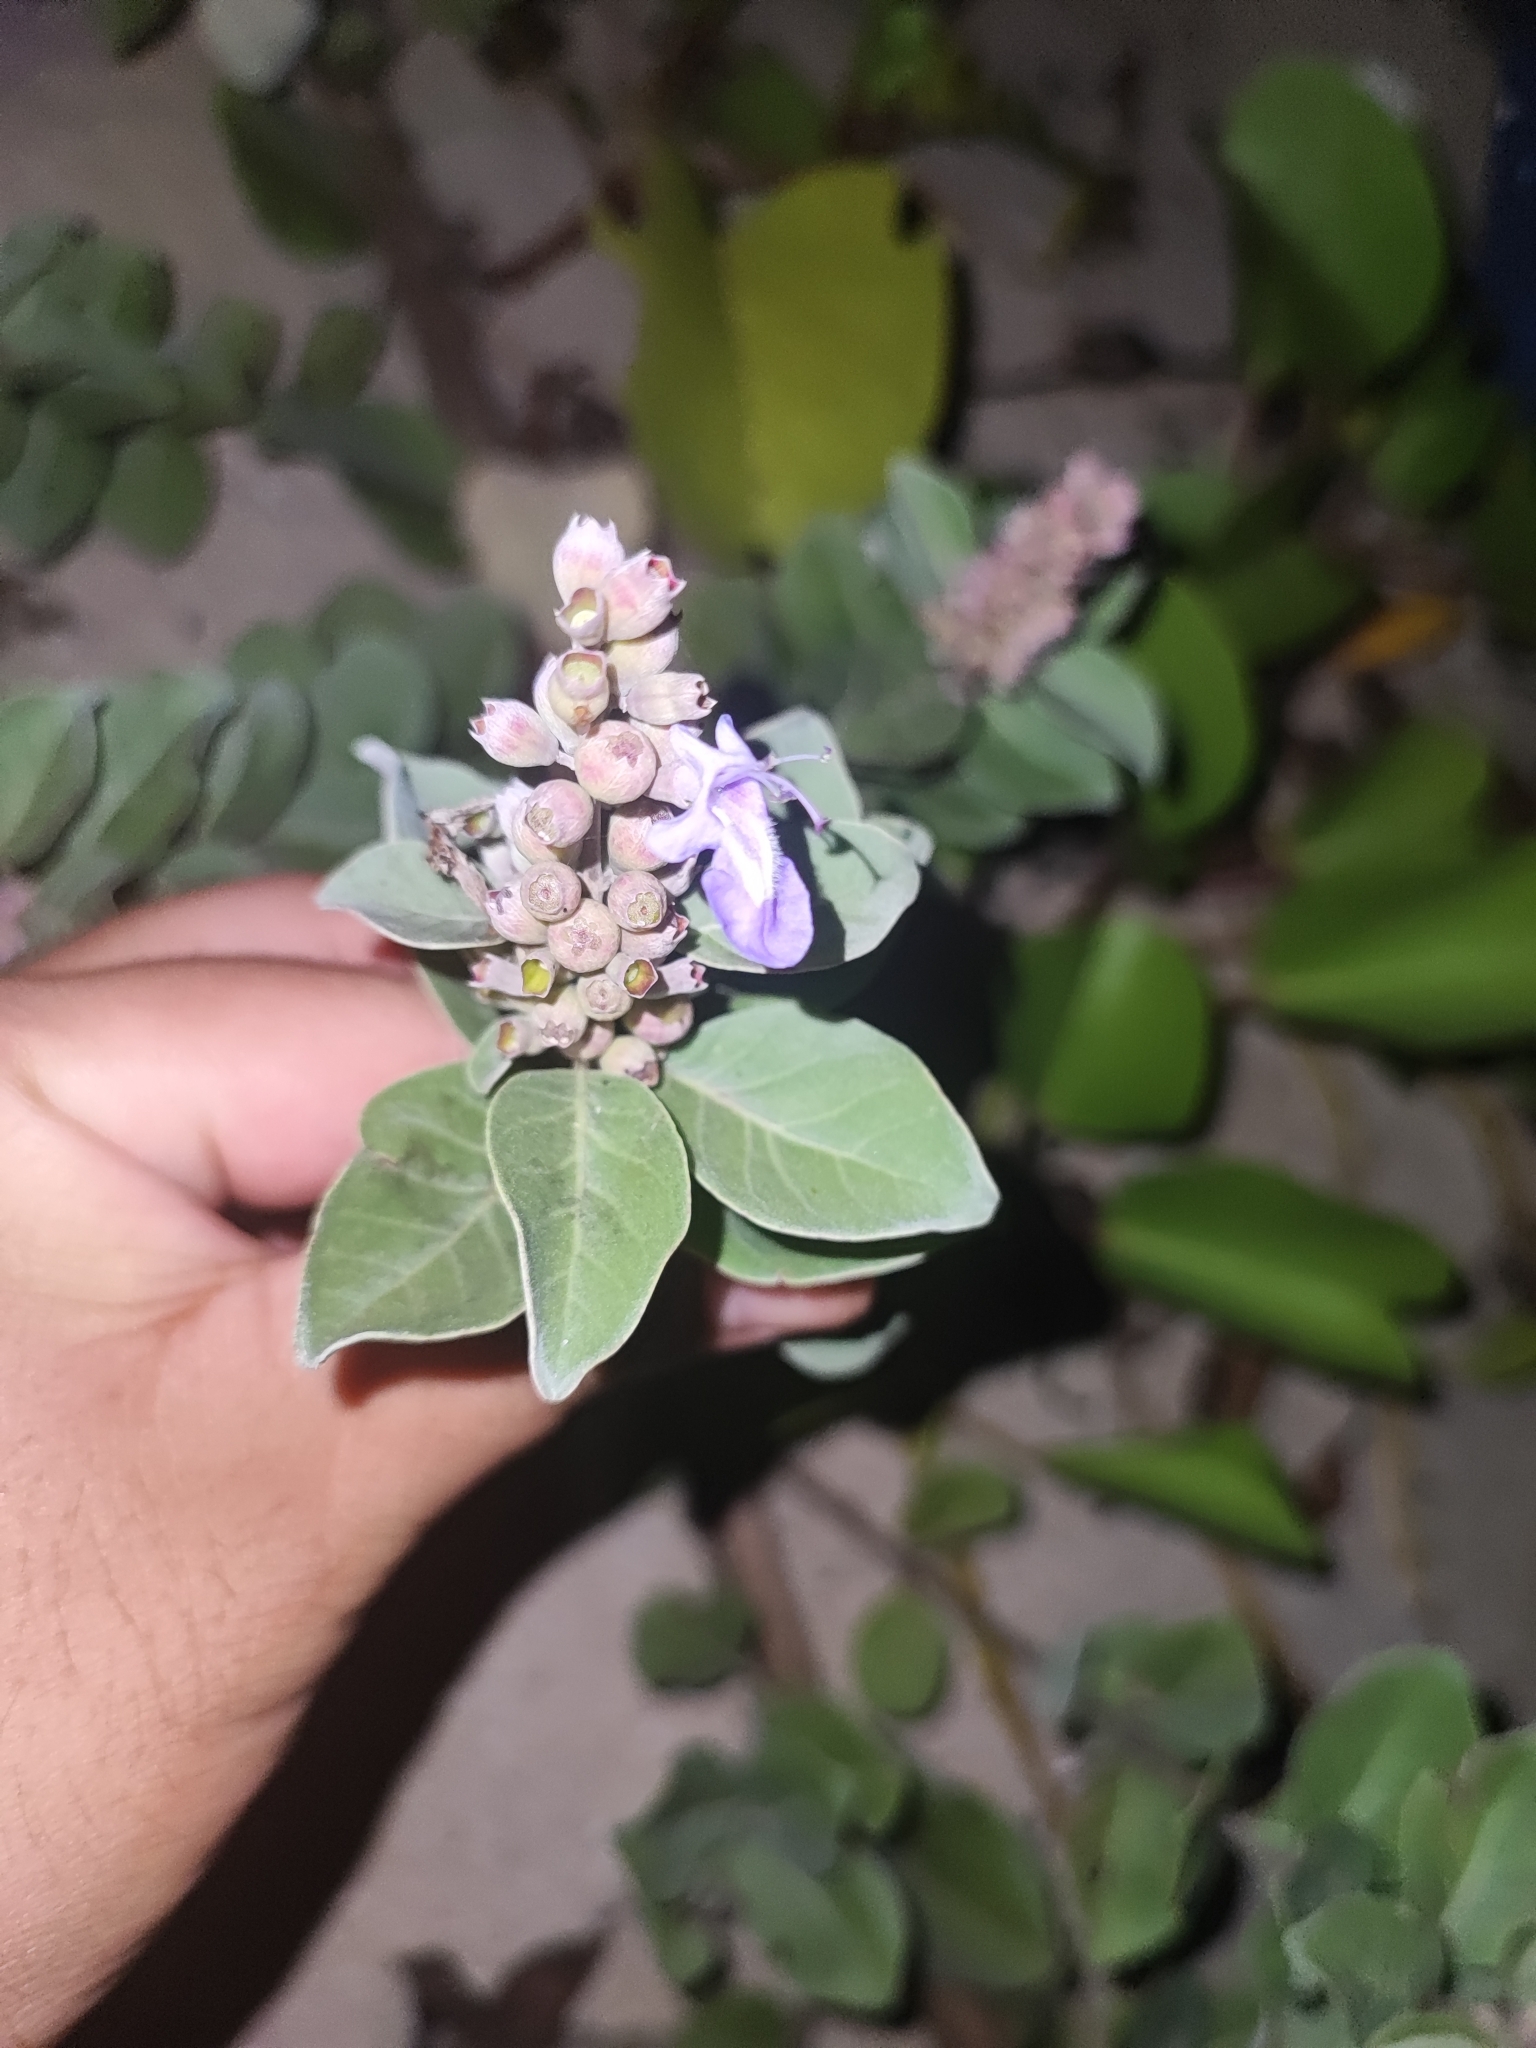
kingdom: Plantae
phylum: Tracheophyta
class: Magnoliopsida
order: Lamiales
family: Lamiaceae
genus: Vitex
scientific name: Vitex rotundifolia
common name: Beach vitex
